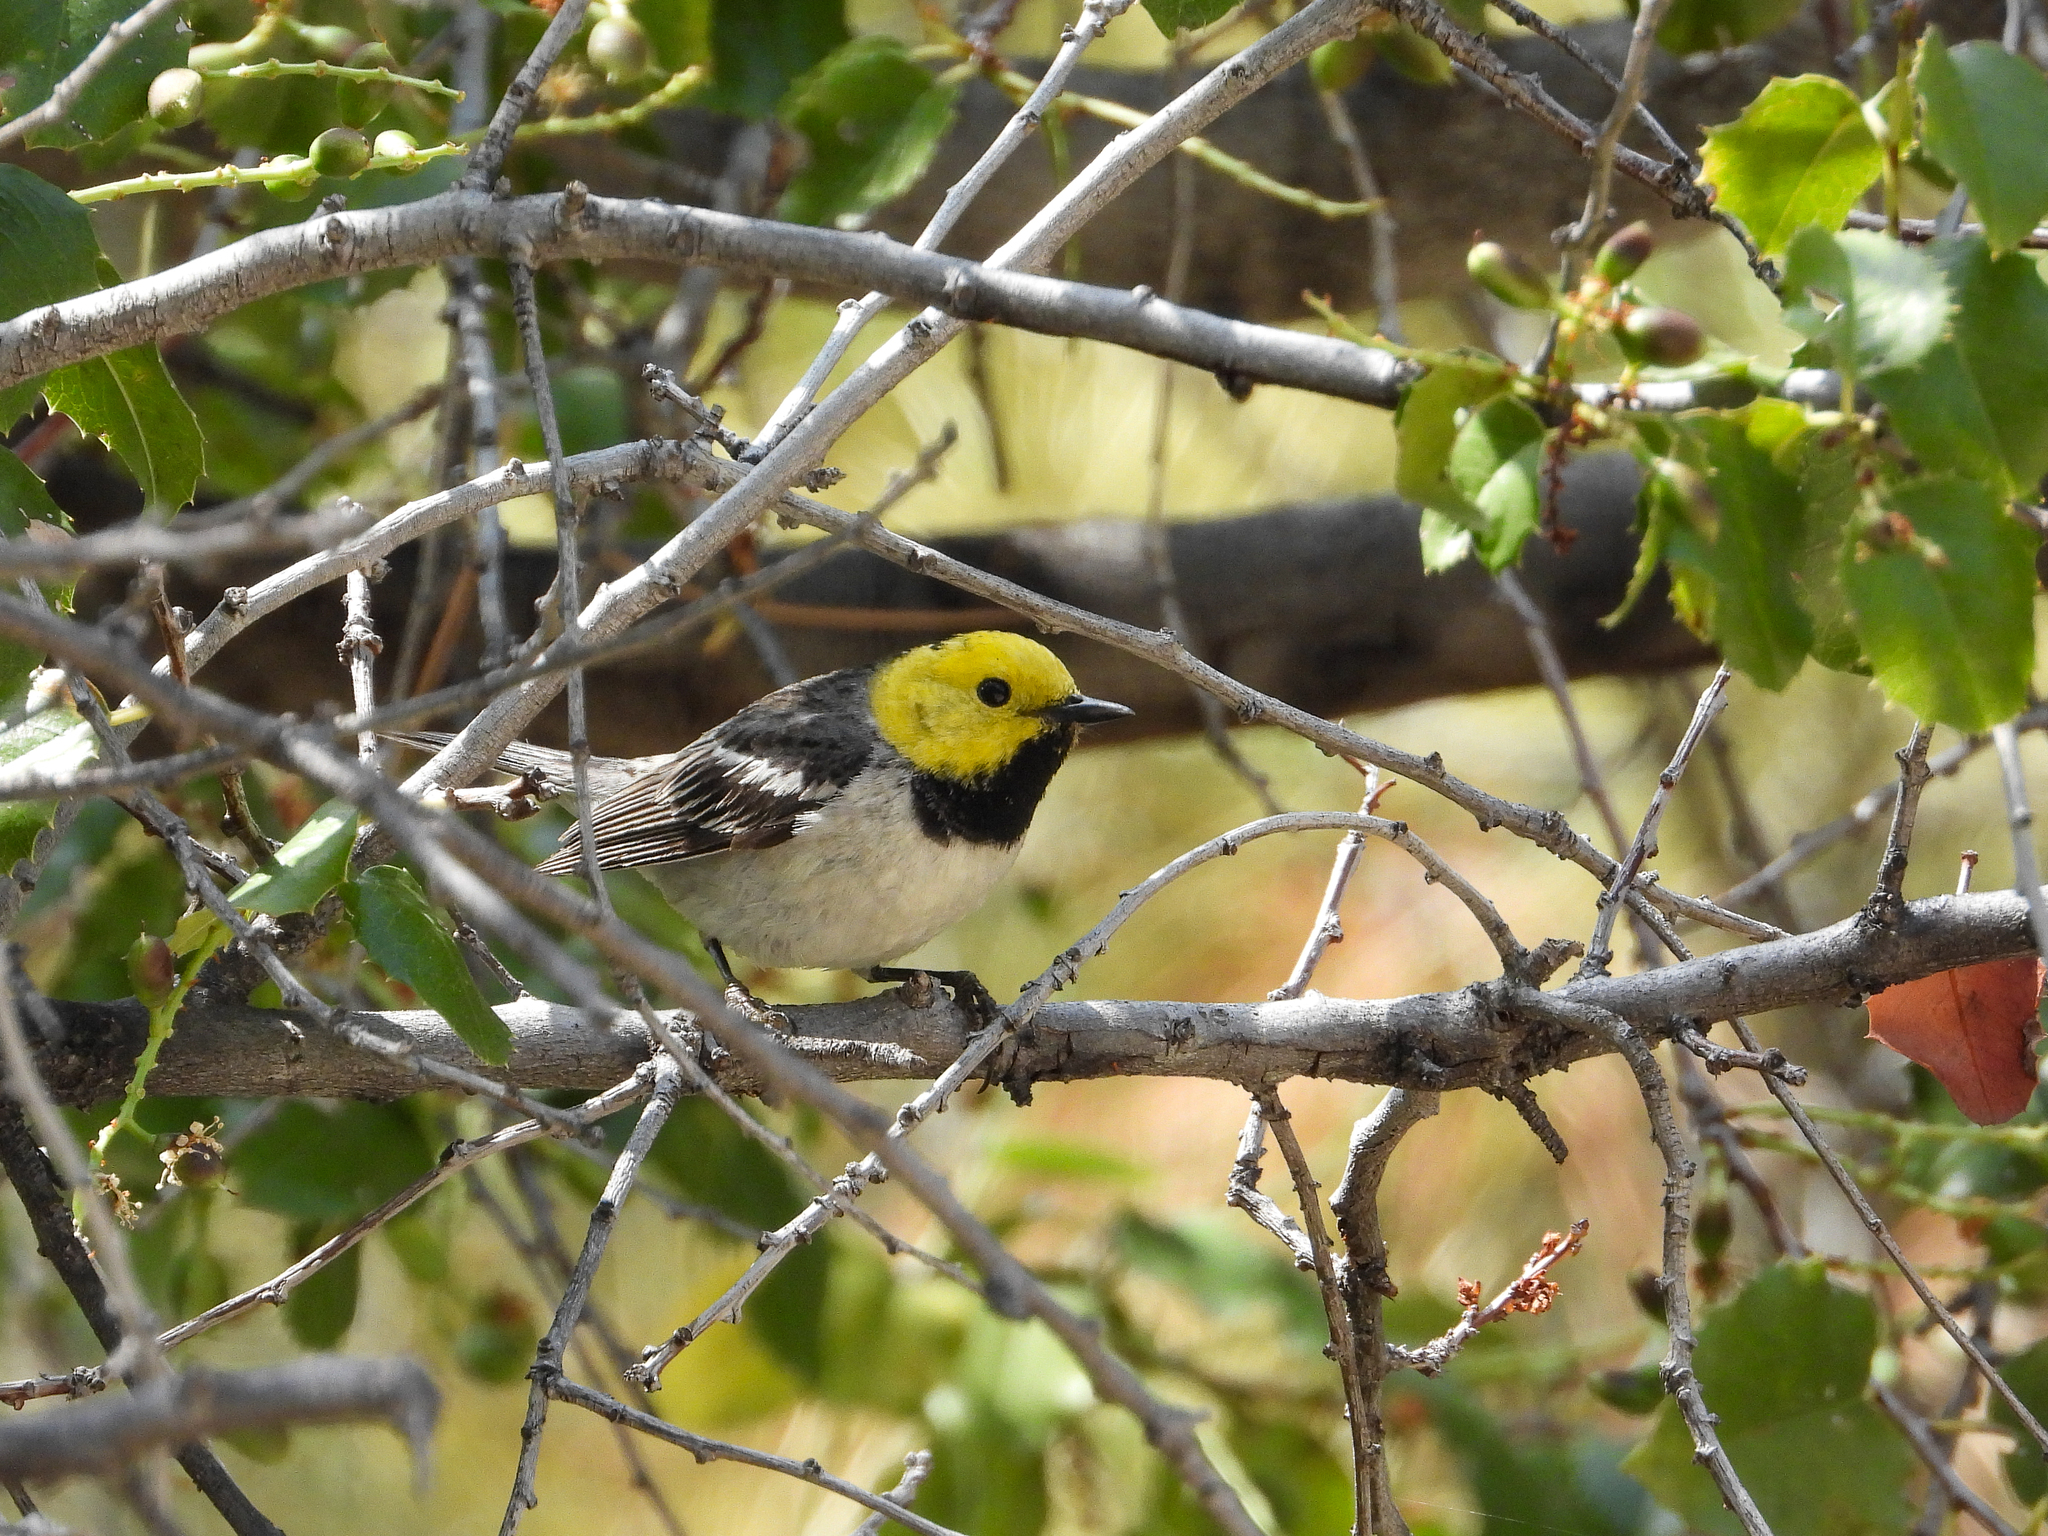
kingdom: Animalia
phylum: Chordata
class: Aves
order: Passeriformes
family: Parulidae
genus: Setophaga
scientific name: Setophaga occidentalis
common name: Hermit warbler
